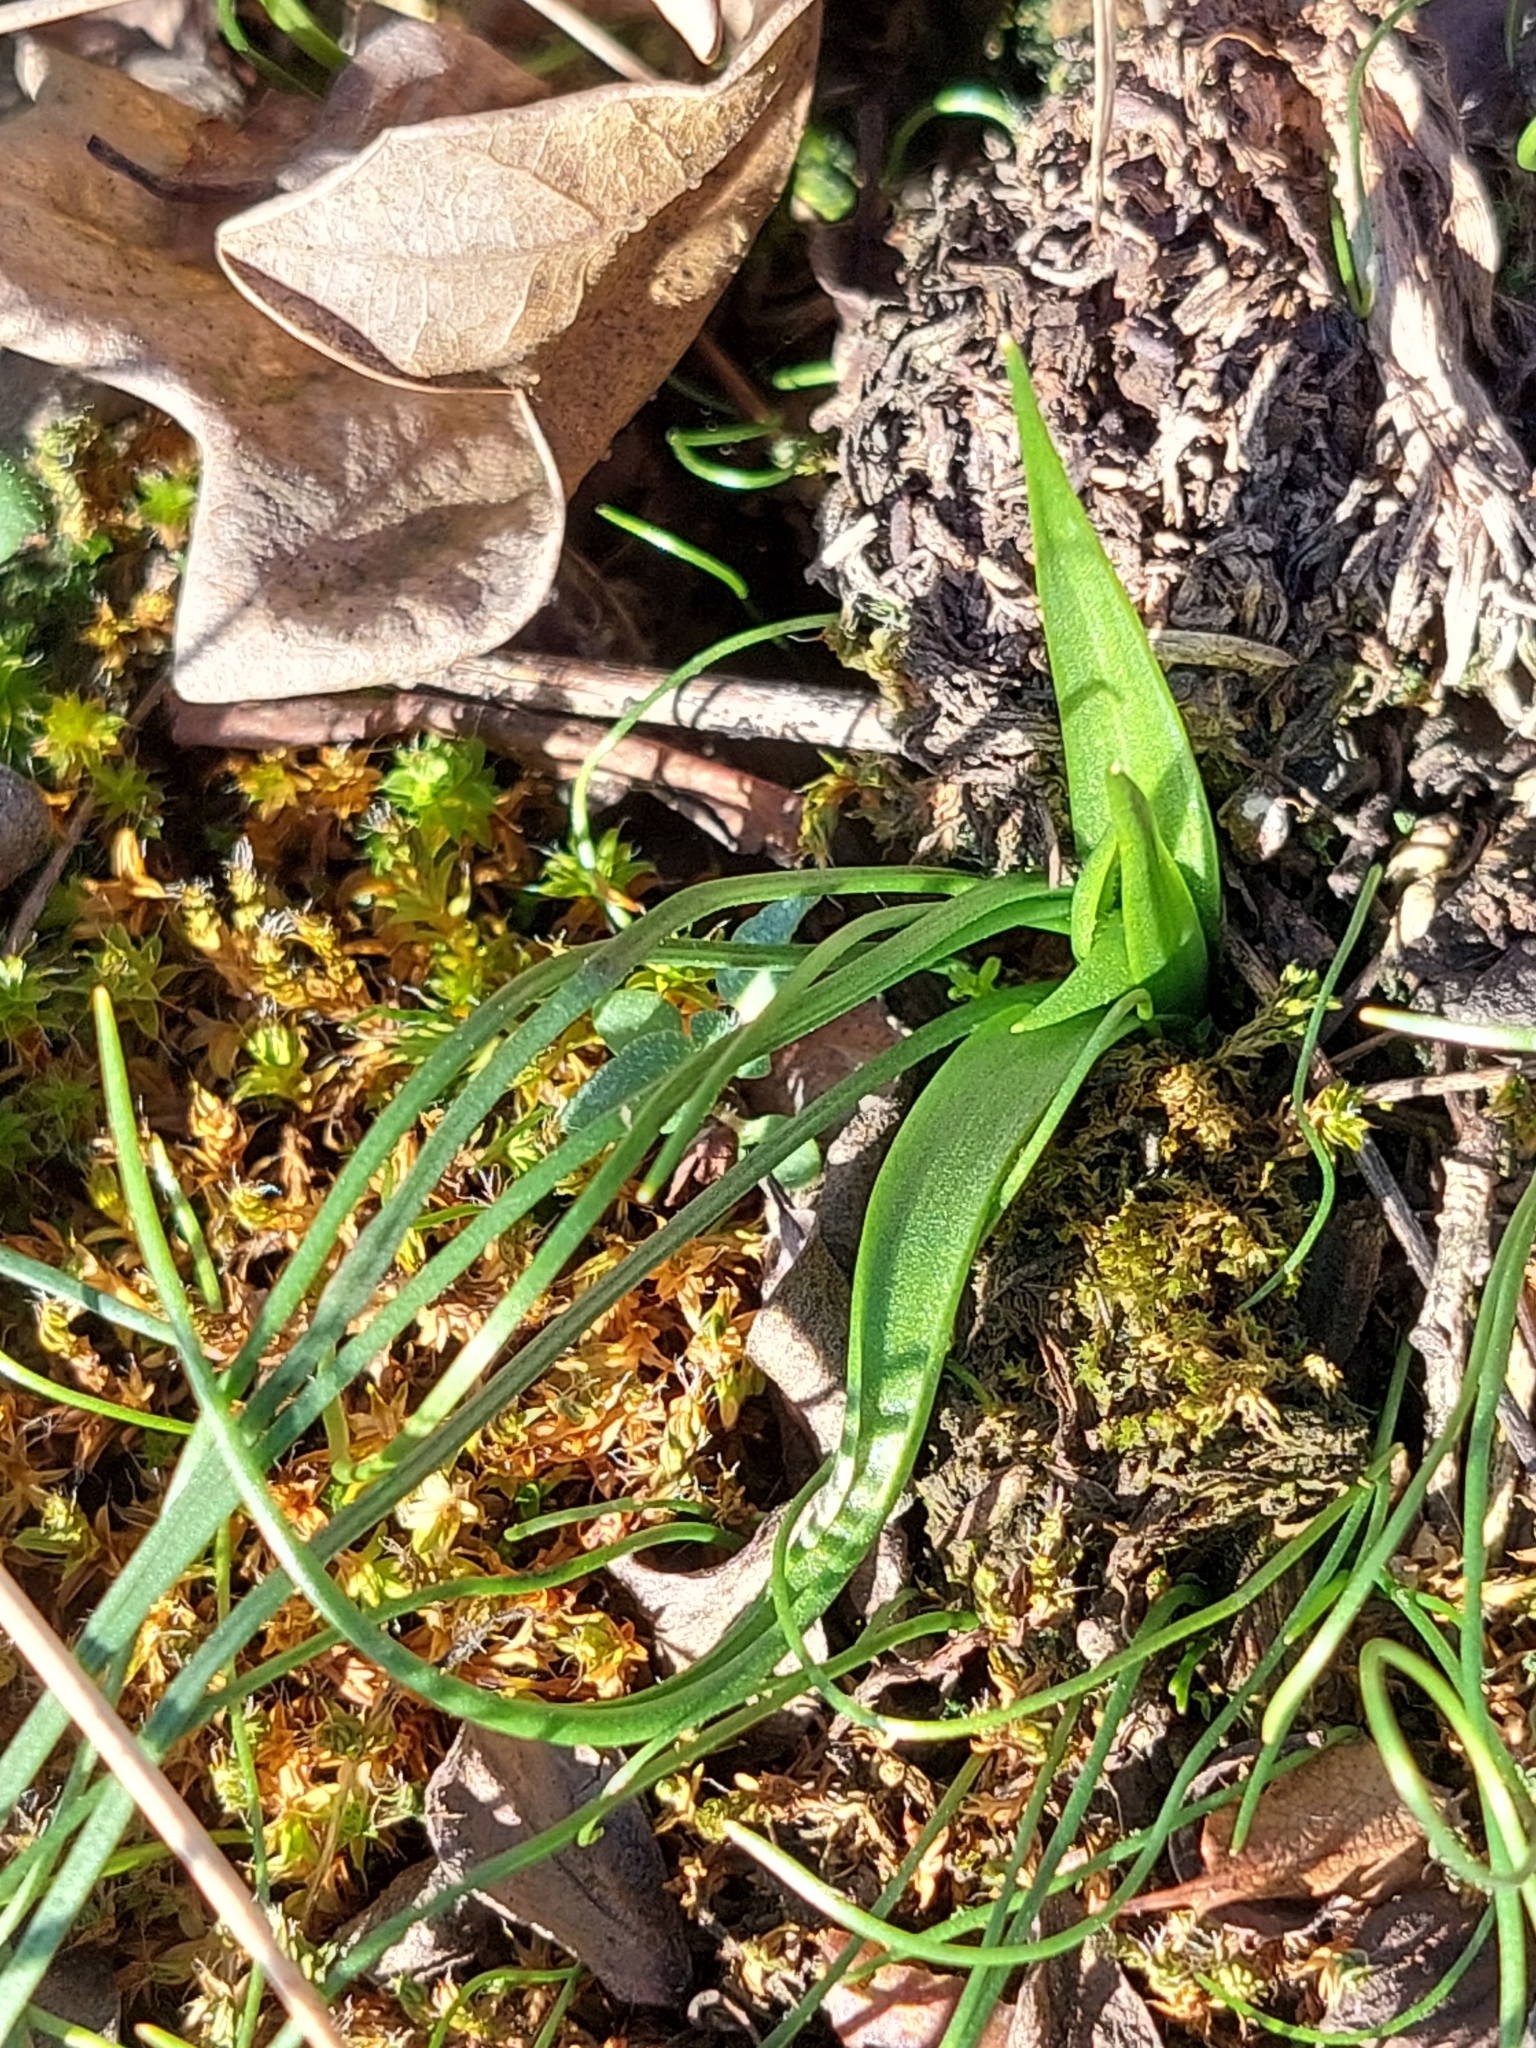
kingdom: Plantae
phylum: Tracheophyta
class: Liliopsida
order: Liliales
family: Liliaceae
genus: Gagea
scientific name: Gagea bohemica
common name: Early star-of-bethlehem
